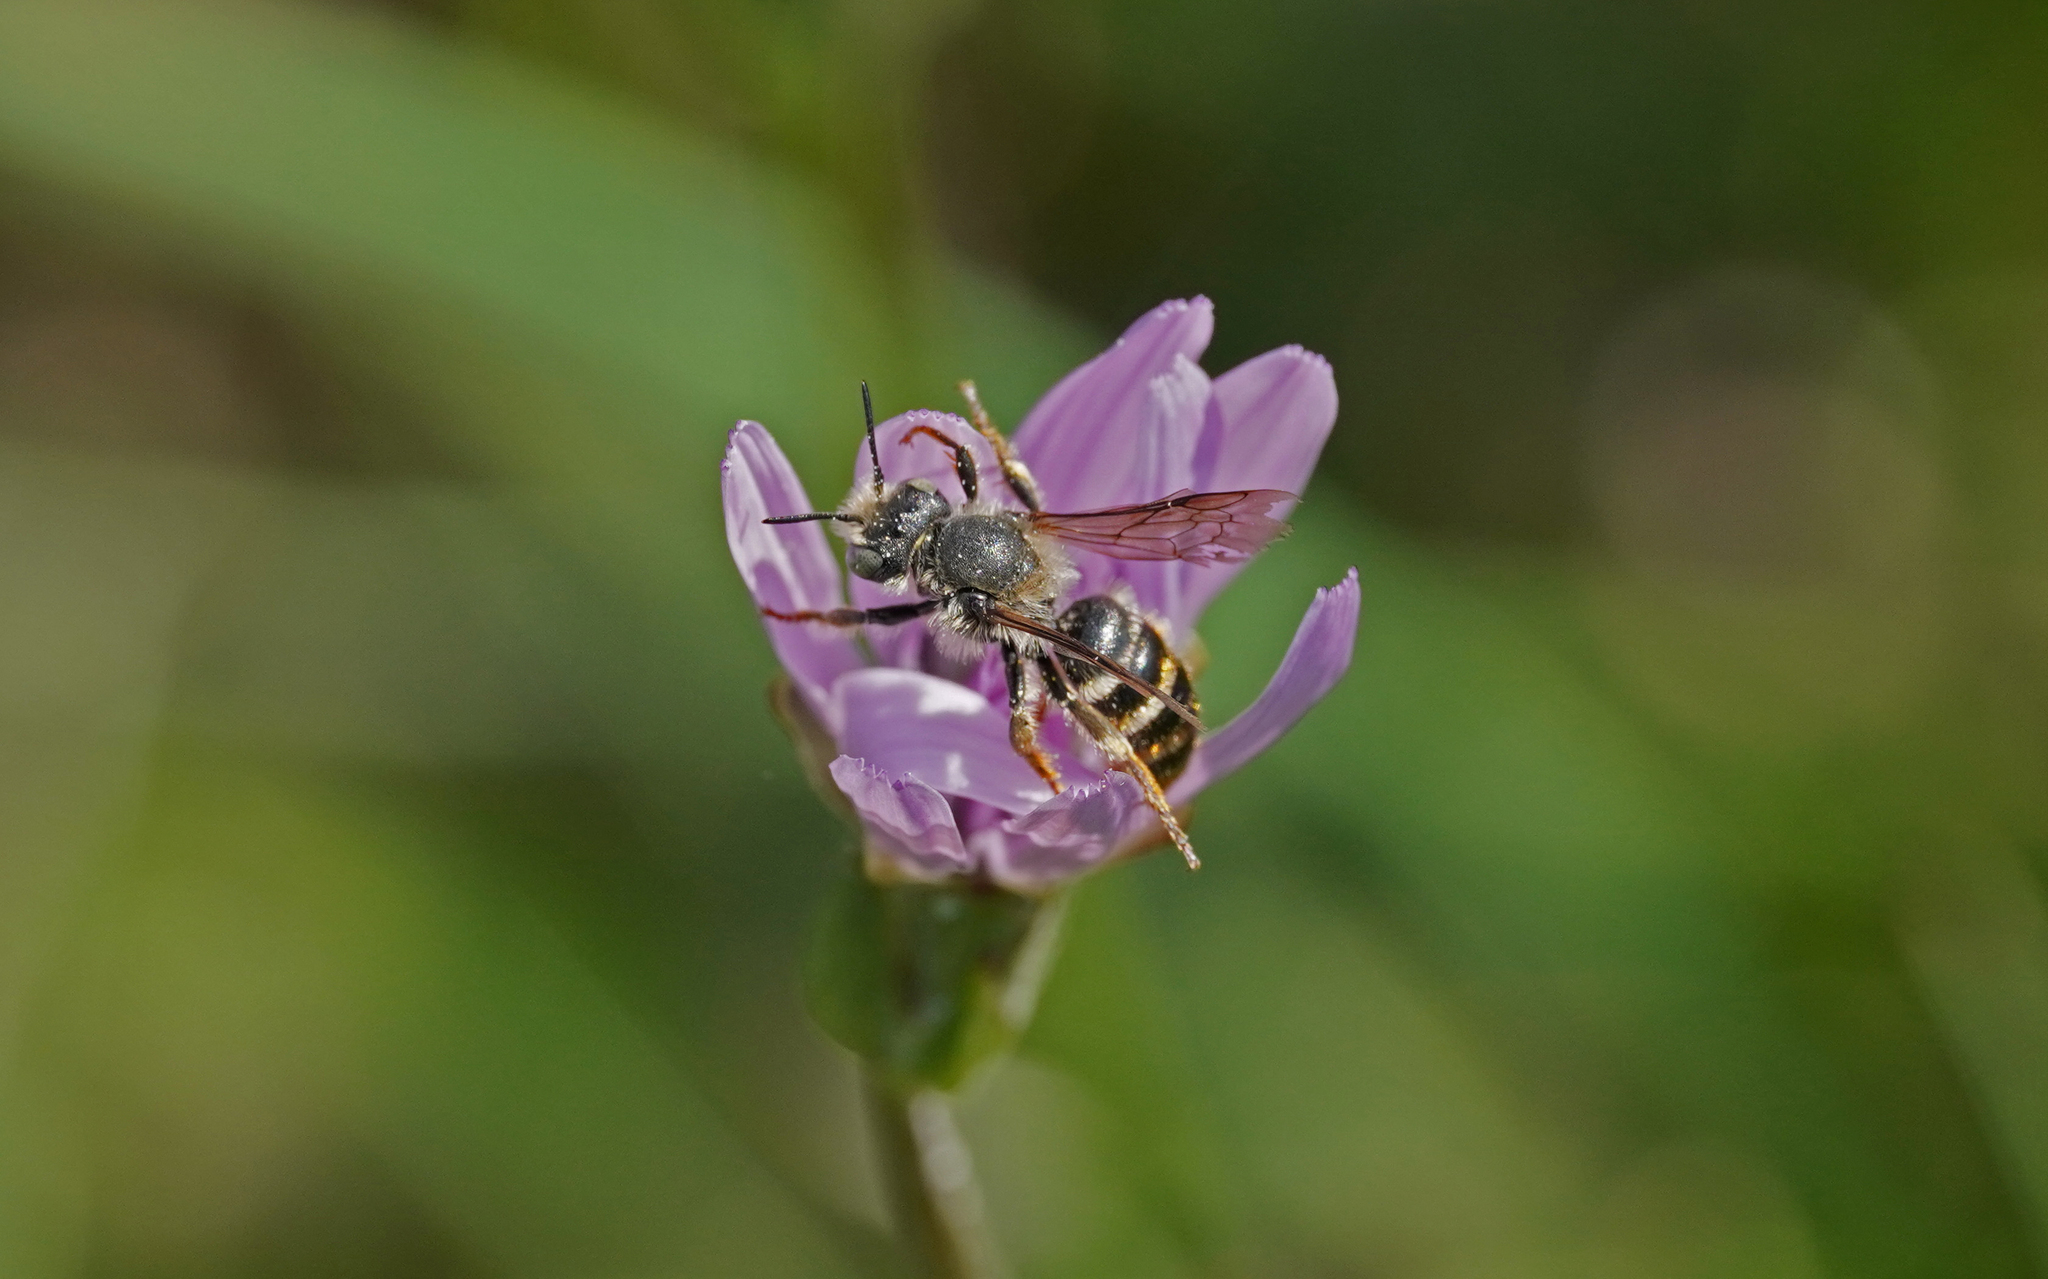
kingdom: Animalia
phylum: Arthropoda
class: Insecta
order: Hymenoptera
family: Megachilidae
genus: Osmia
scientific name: Osmia rufohirta
